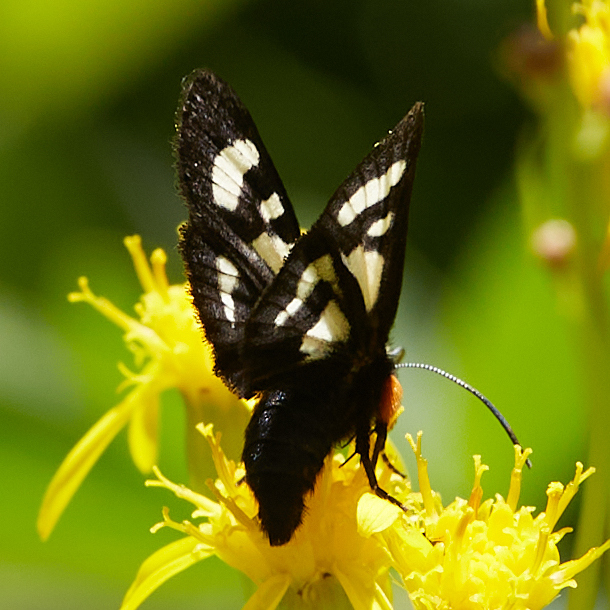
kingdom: Animalia
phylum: Arthropoda
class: Insecta
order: Lepidoptera
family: Noctuidae
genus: Alypia
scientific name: Alypia maccullochii
